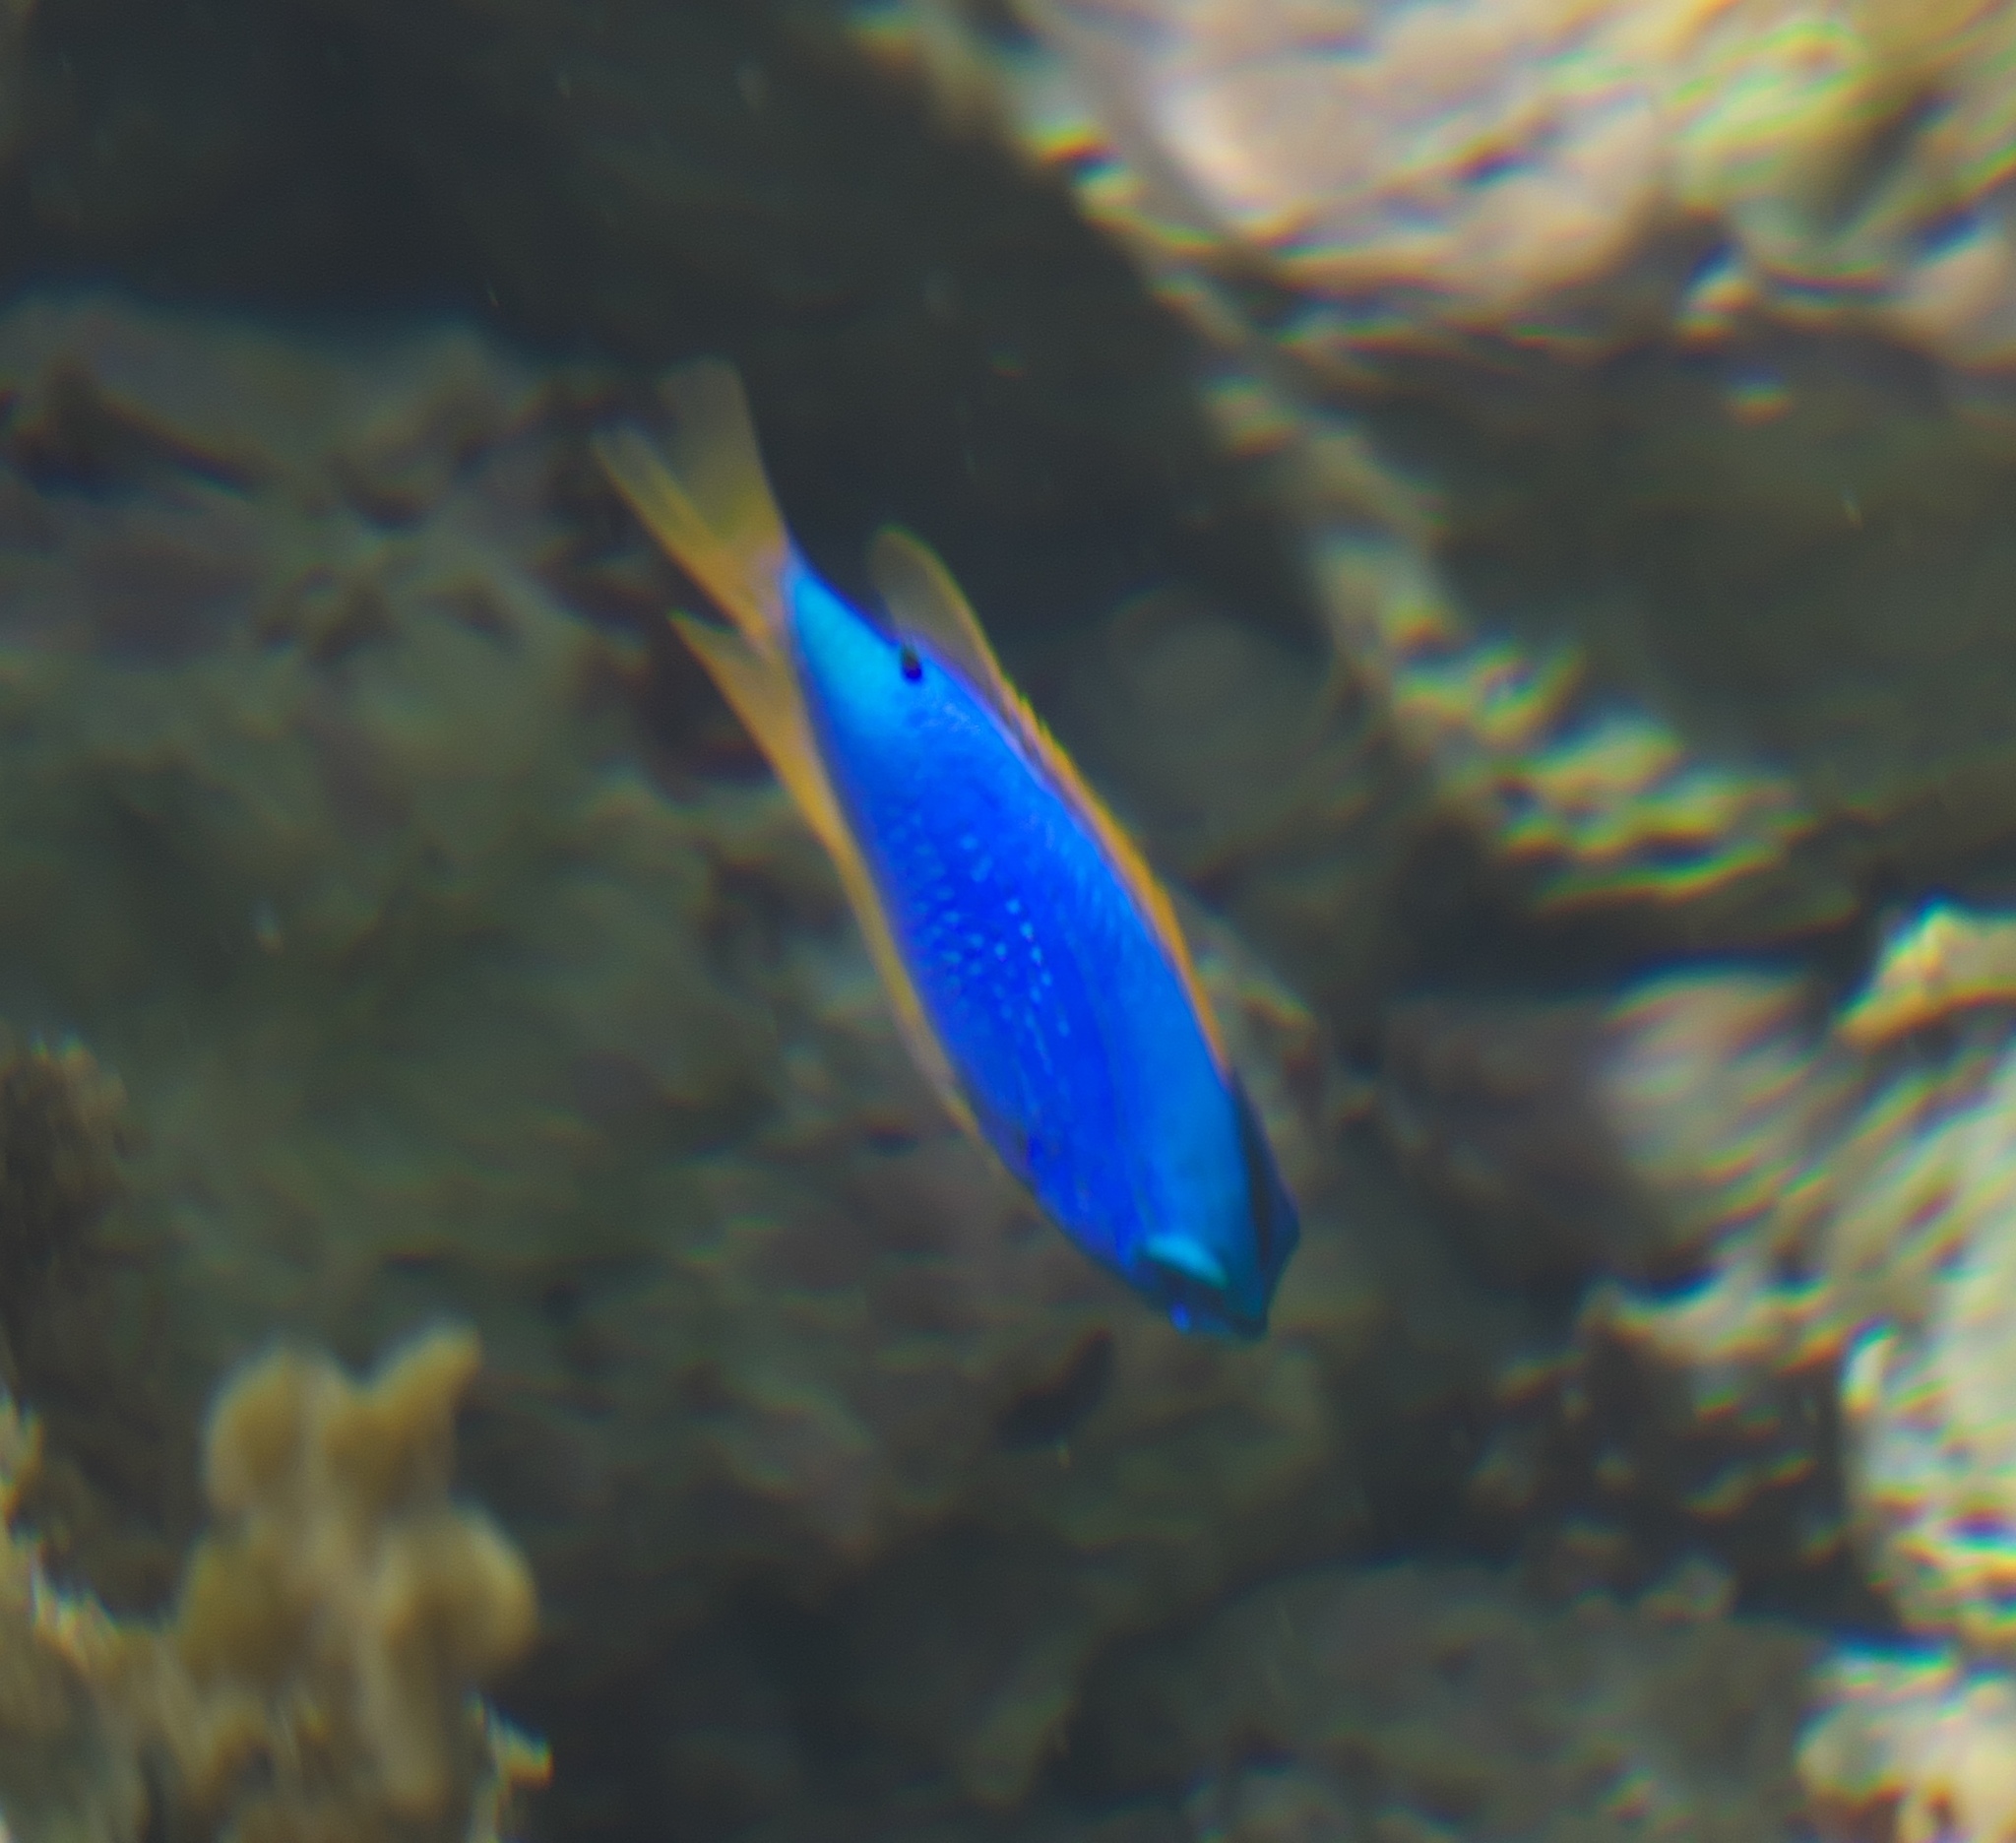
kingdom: Animalia
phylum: Chordata
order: Perciformes
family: Pomacentridae
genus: Chrysiptera
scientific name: Chrysiptera taupou
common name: Fiji damsel
